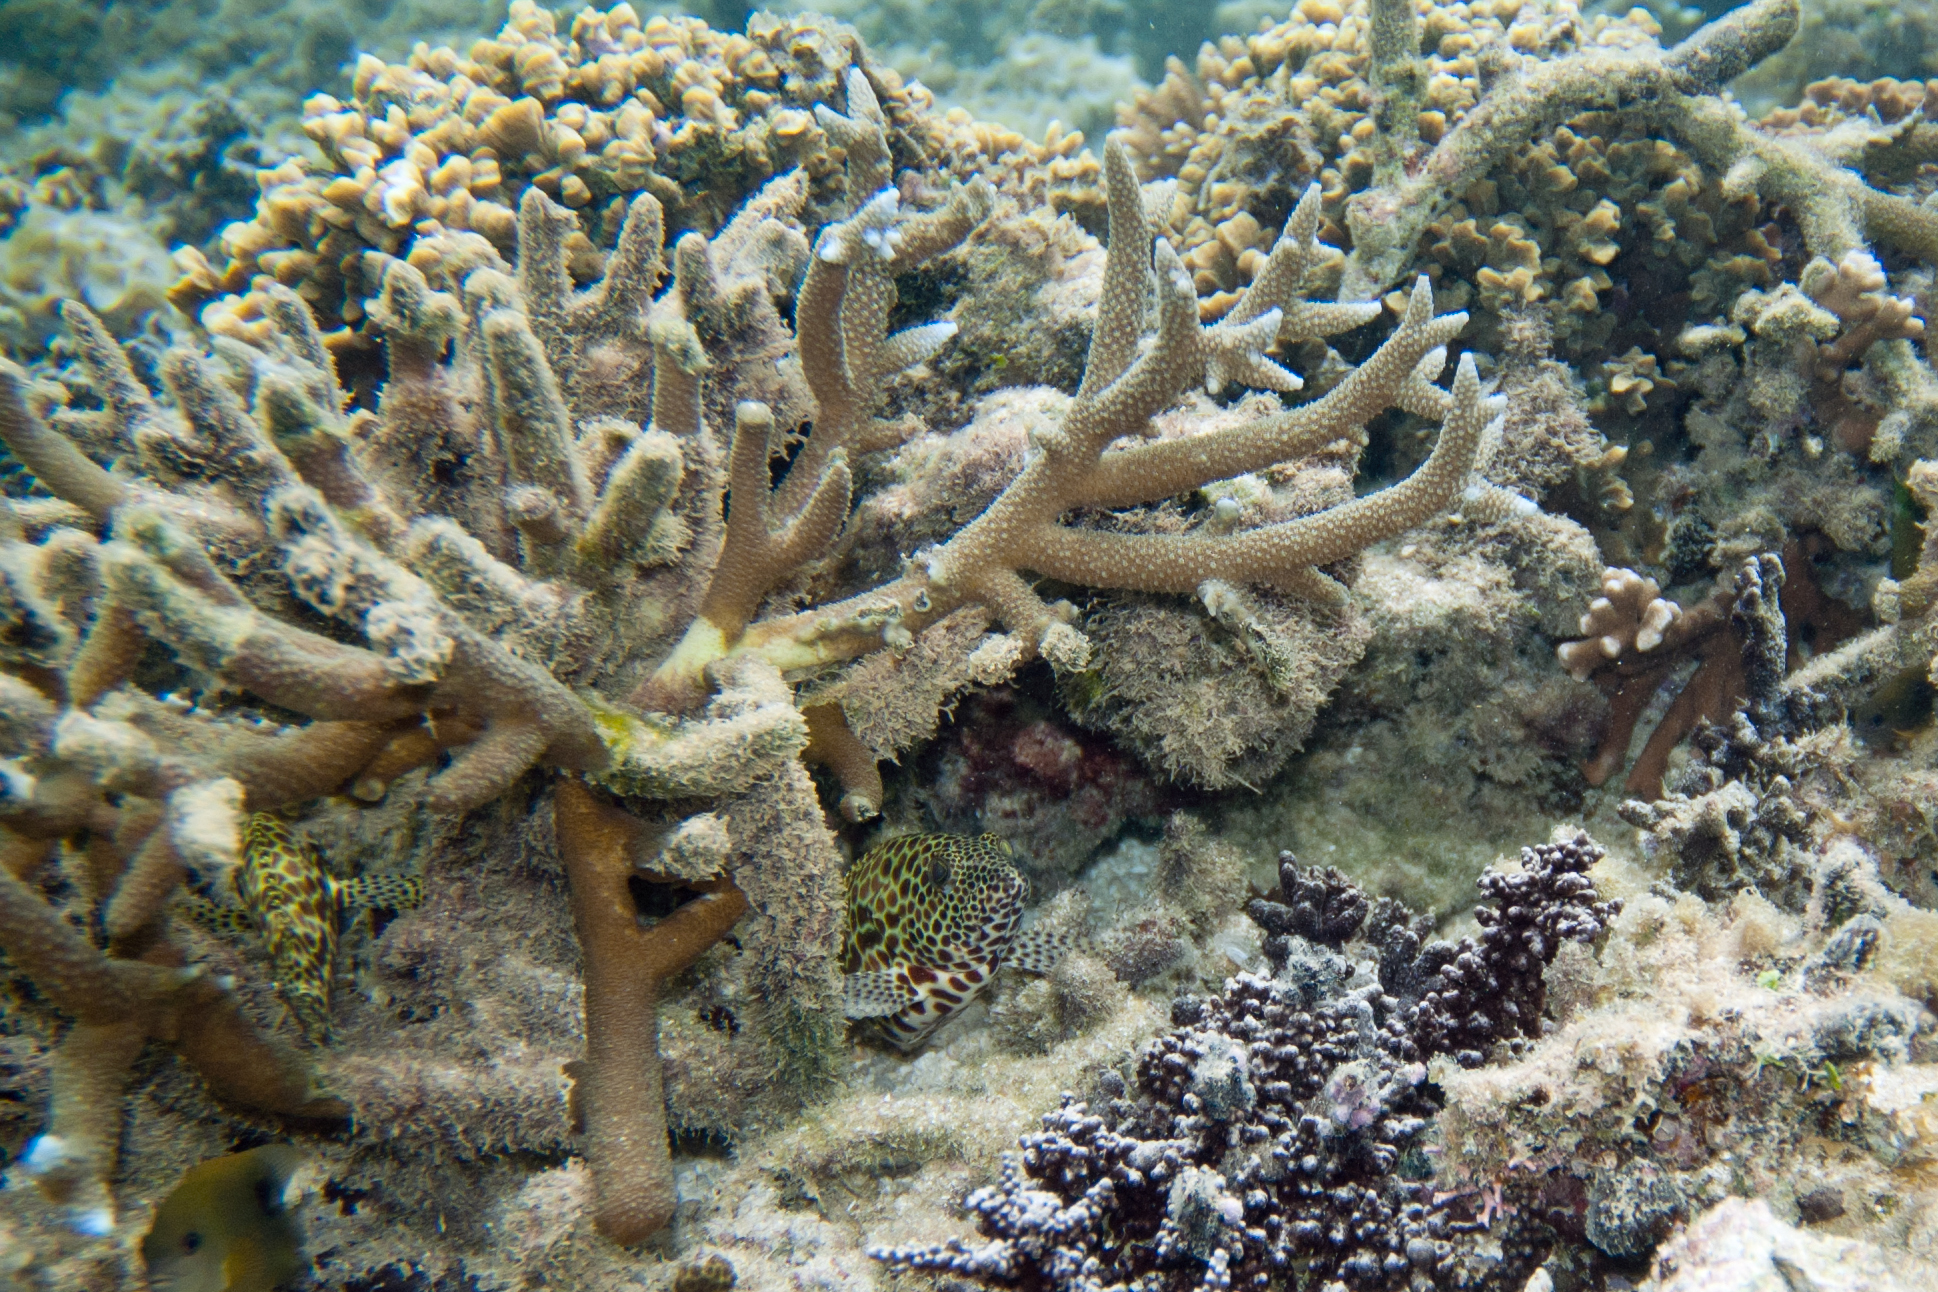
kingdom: Animalia
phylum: Chordata
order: Perciformes
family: Serranidae
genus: Epinephelus
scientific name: Epinephelus merra
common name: Honeycomb grouper
